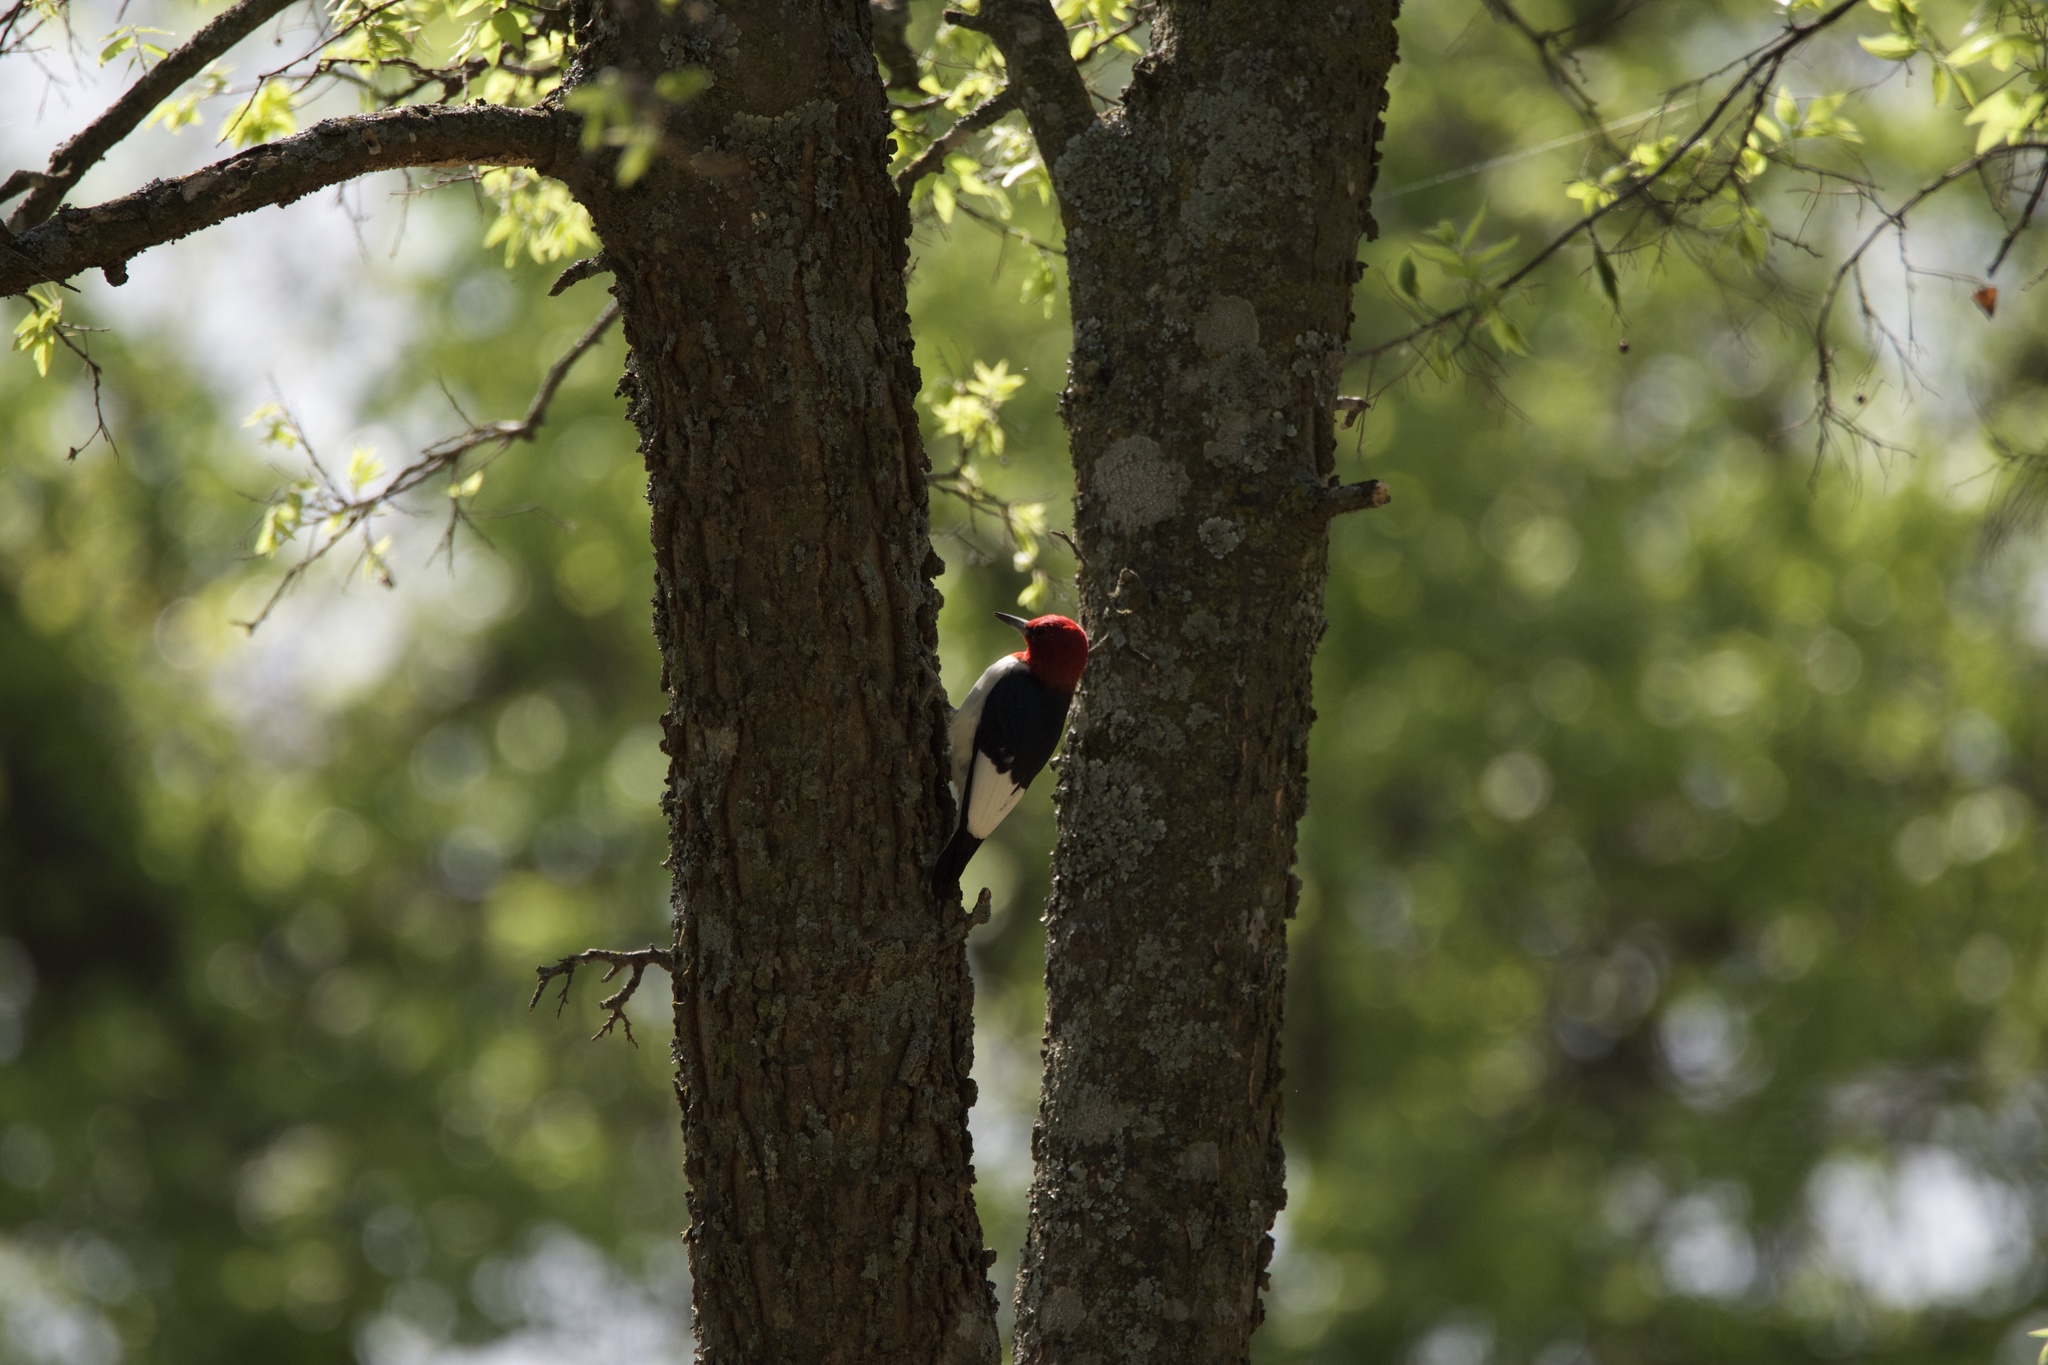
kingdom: Animalia
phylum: Chordata
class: Aves
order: Piciformes
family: Picidae
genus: Melanerpes
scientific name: Melanerpes erythrocephalus
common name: Red-headed woodpecker
